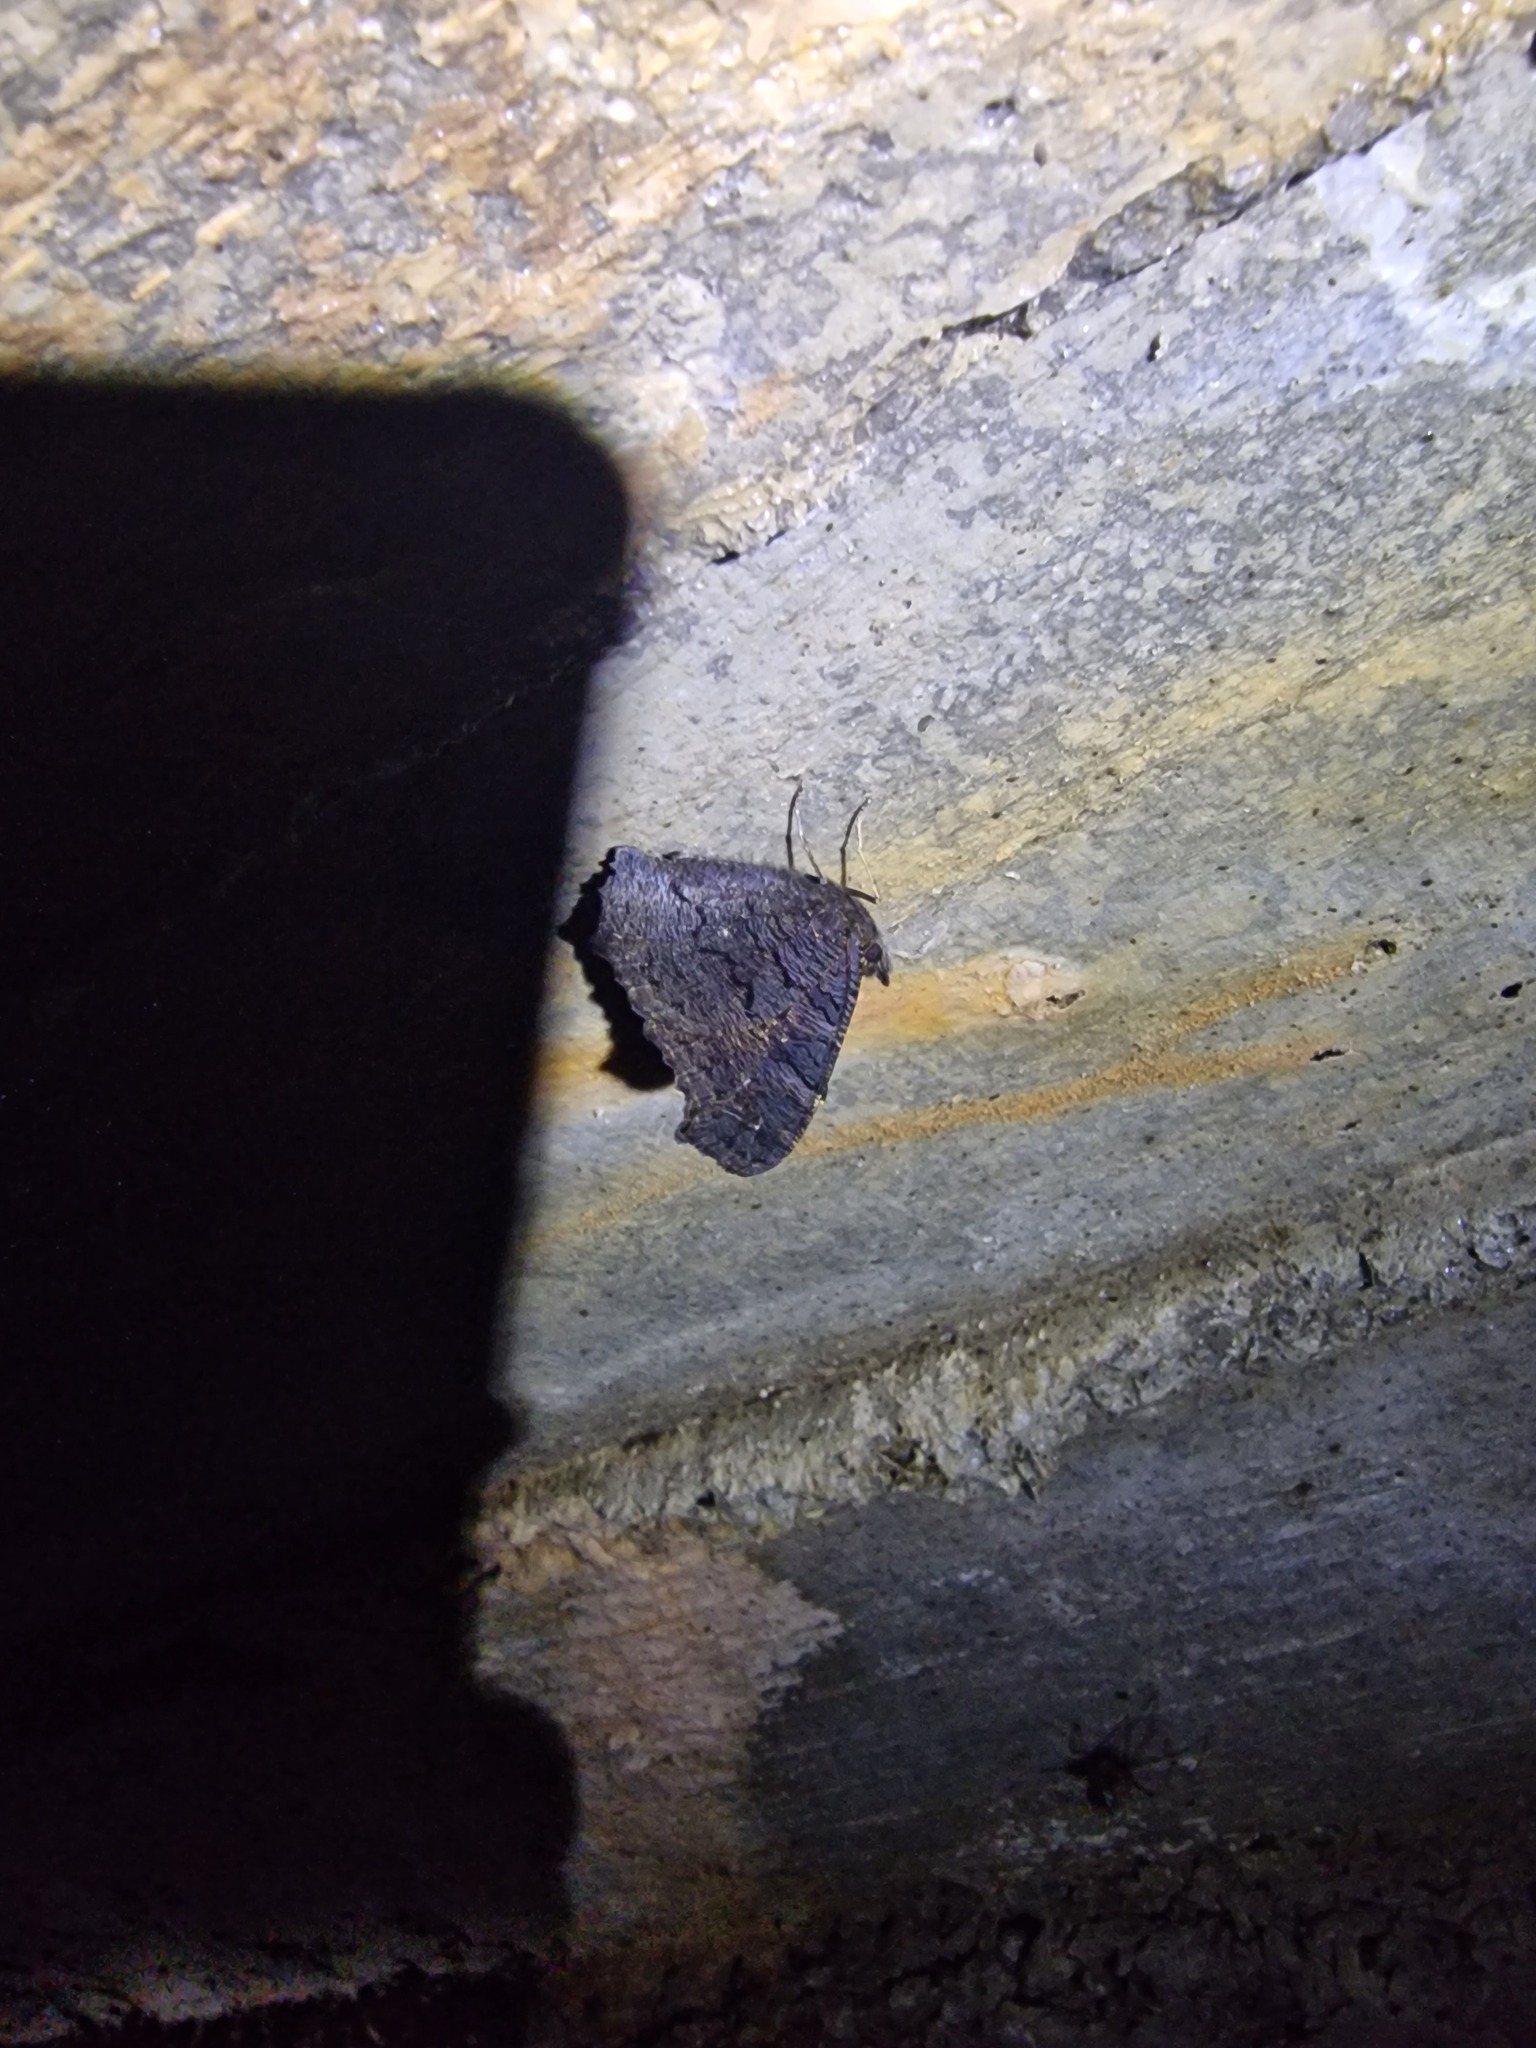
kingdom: Animalia
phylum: Arthropoda
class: Insecta
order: Lepidoptera
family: Nymphalidae
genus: Aglais
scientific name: Aglais io
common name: Peacock
